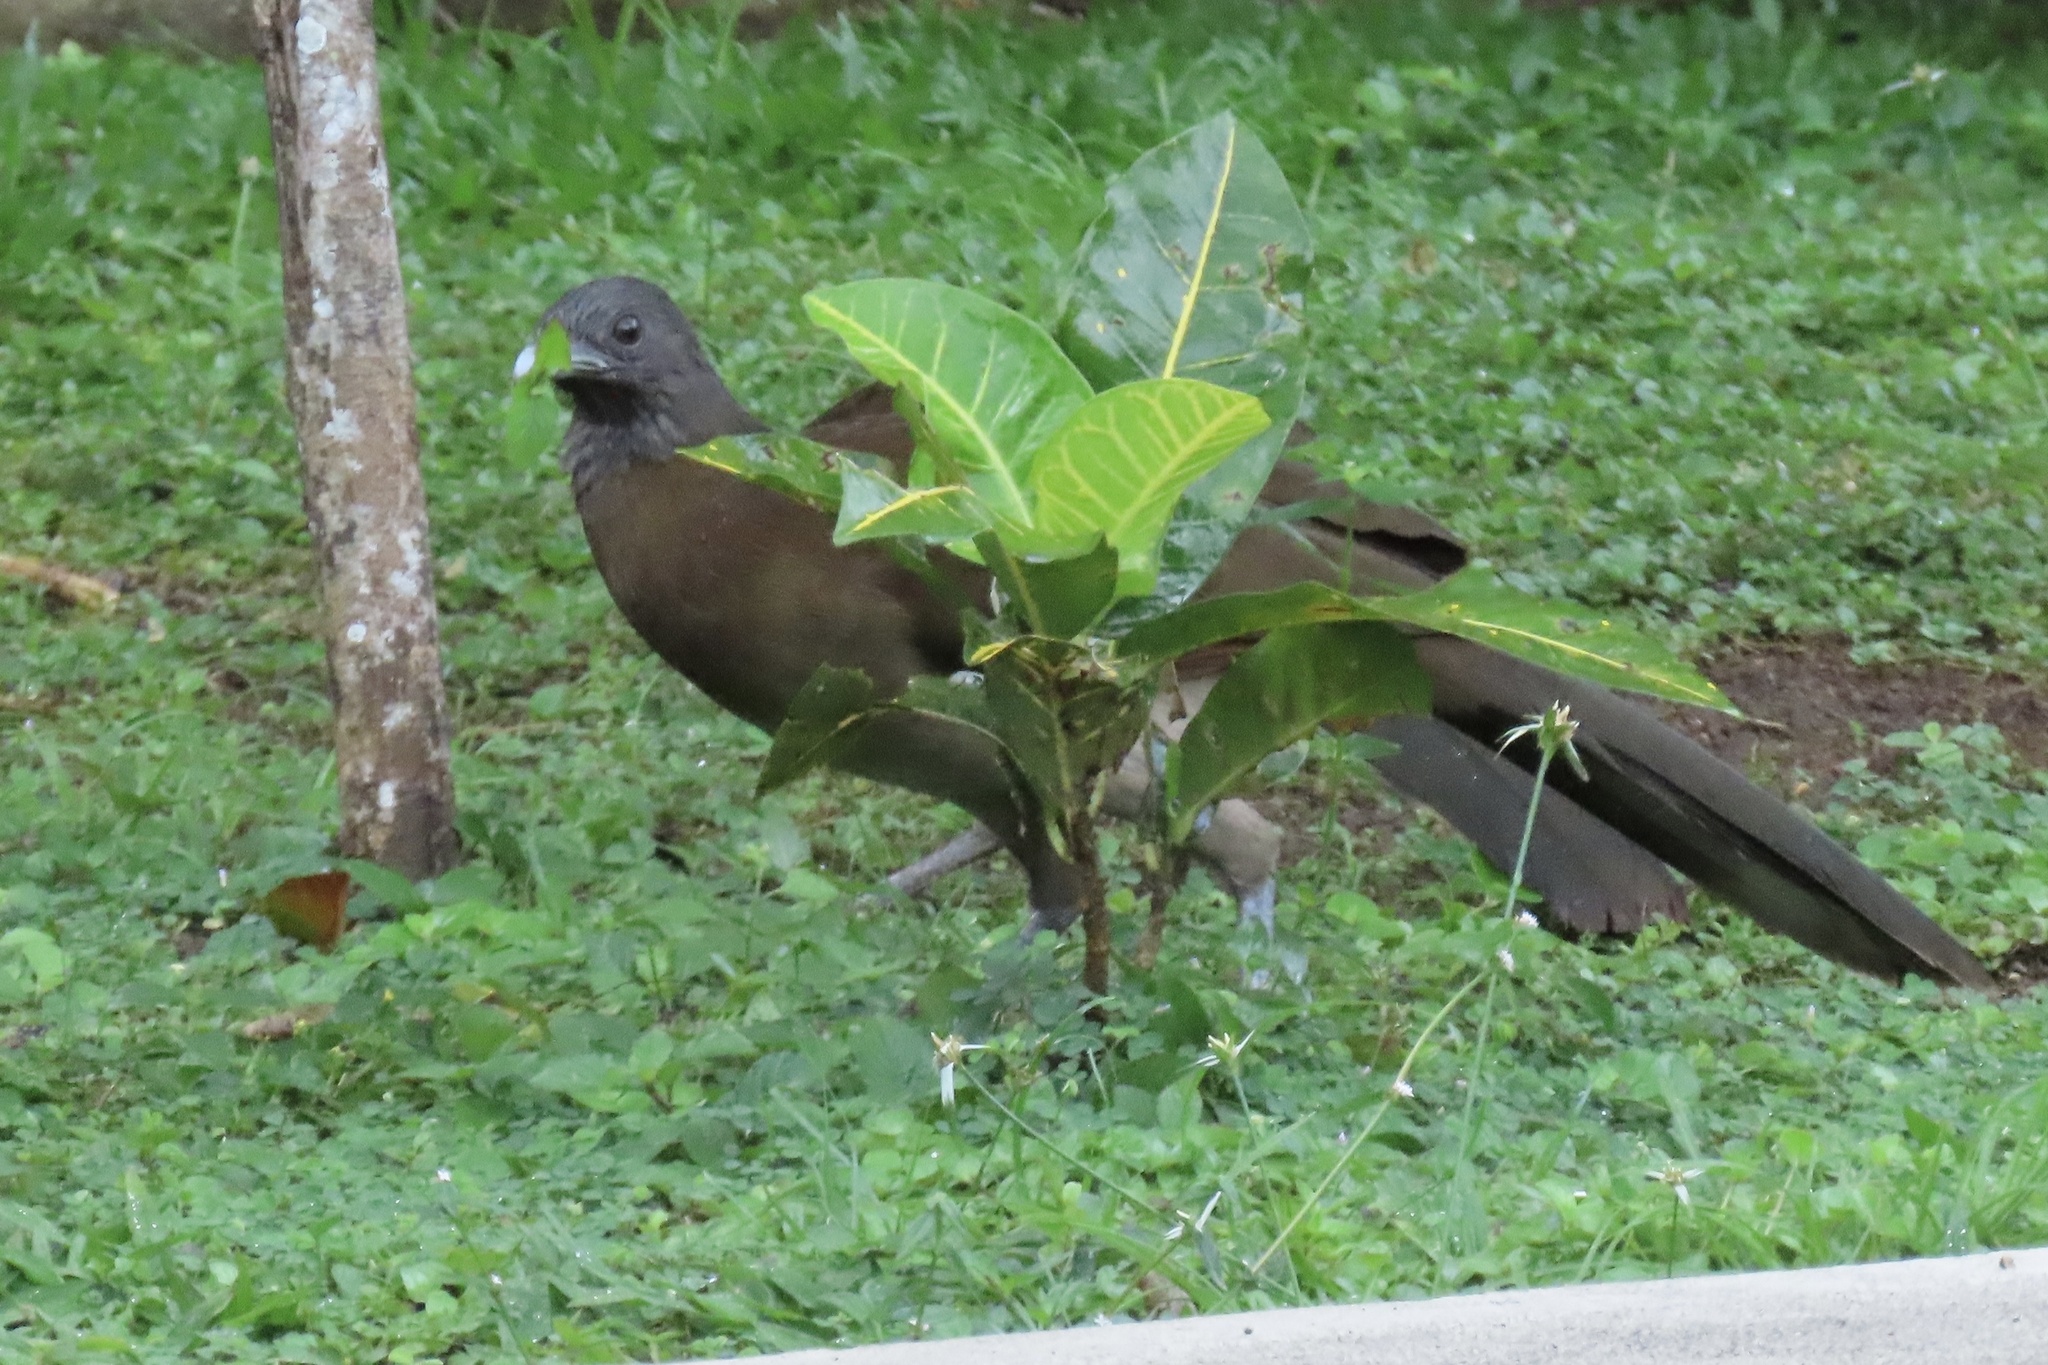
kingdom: Animalia
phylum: Chordata
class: Aves
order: Galliformes
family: Cracidae
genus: Ortalis
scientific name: Ortalis cinereiceps
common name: Grey-headed chachalaca
